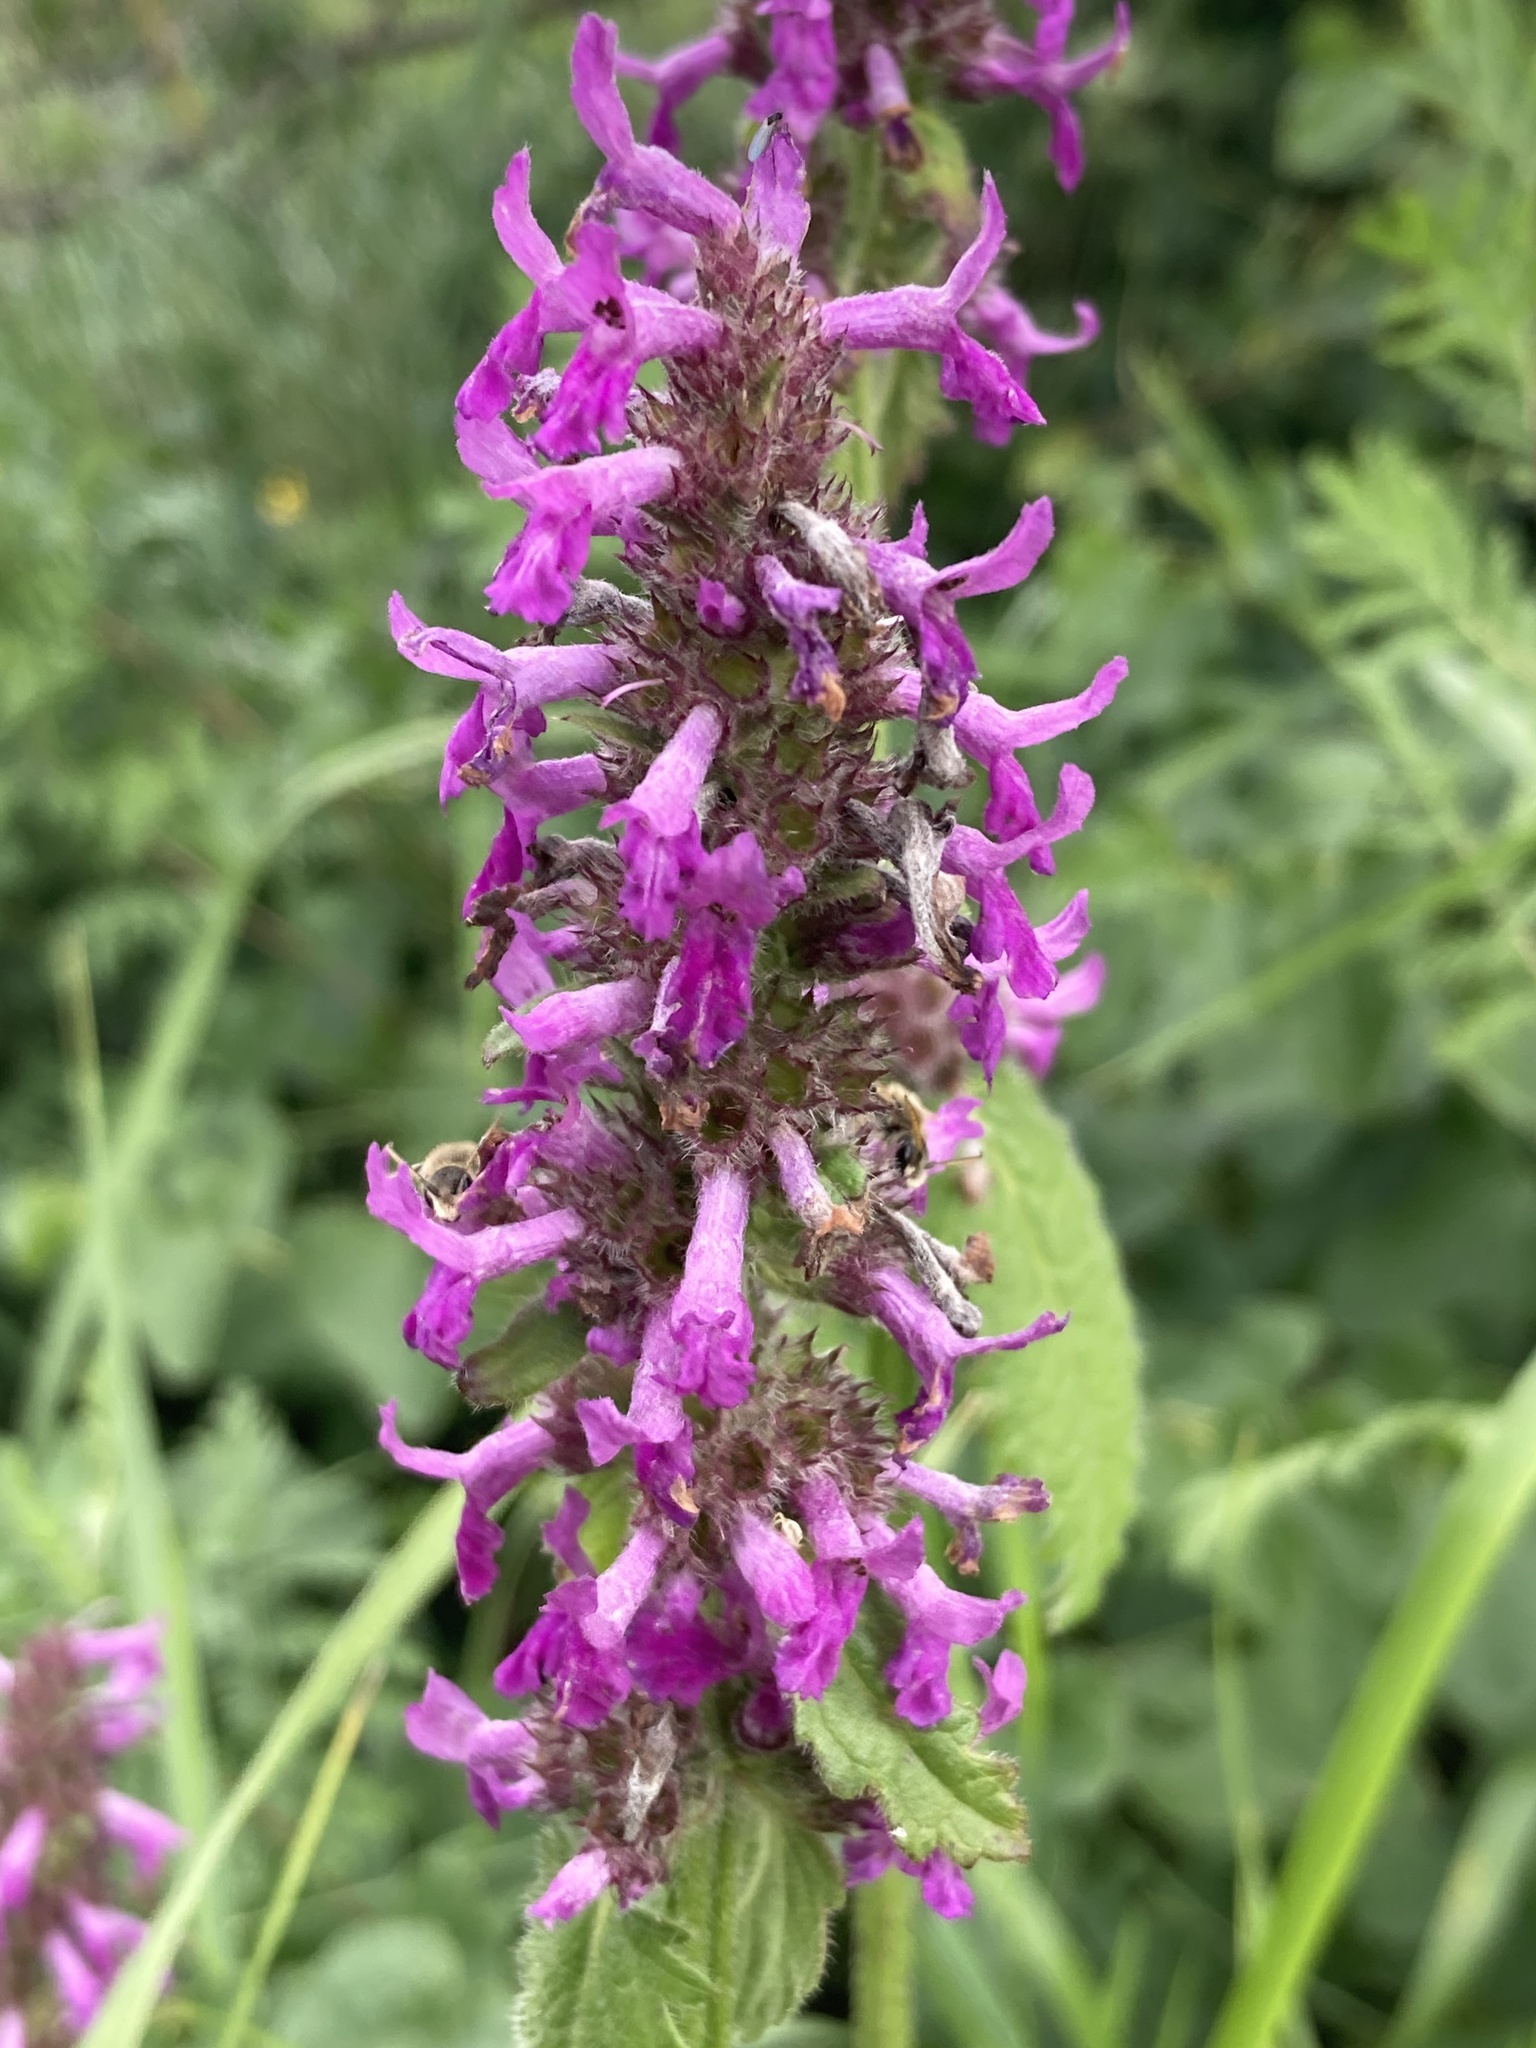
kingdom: Plantae
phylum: Tracheophyta
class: Magnoliopsida
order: Lamiales
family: Lamiaceae
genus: Betonica
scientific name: Betonica officinalis
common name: Bishop's-wort
